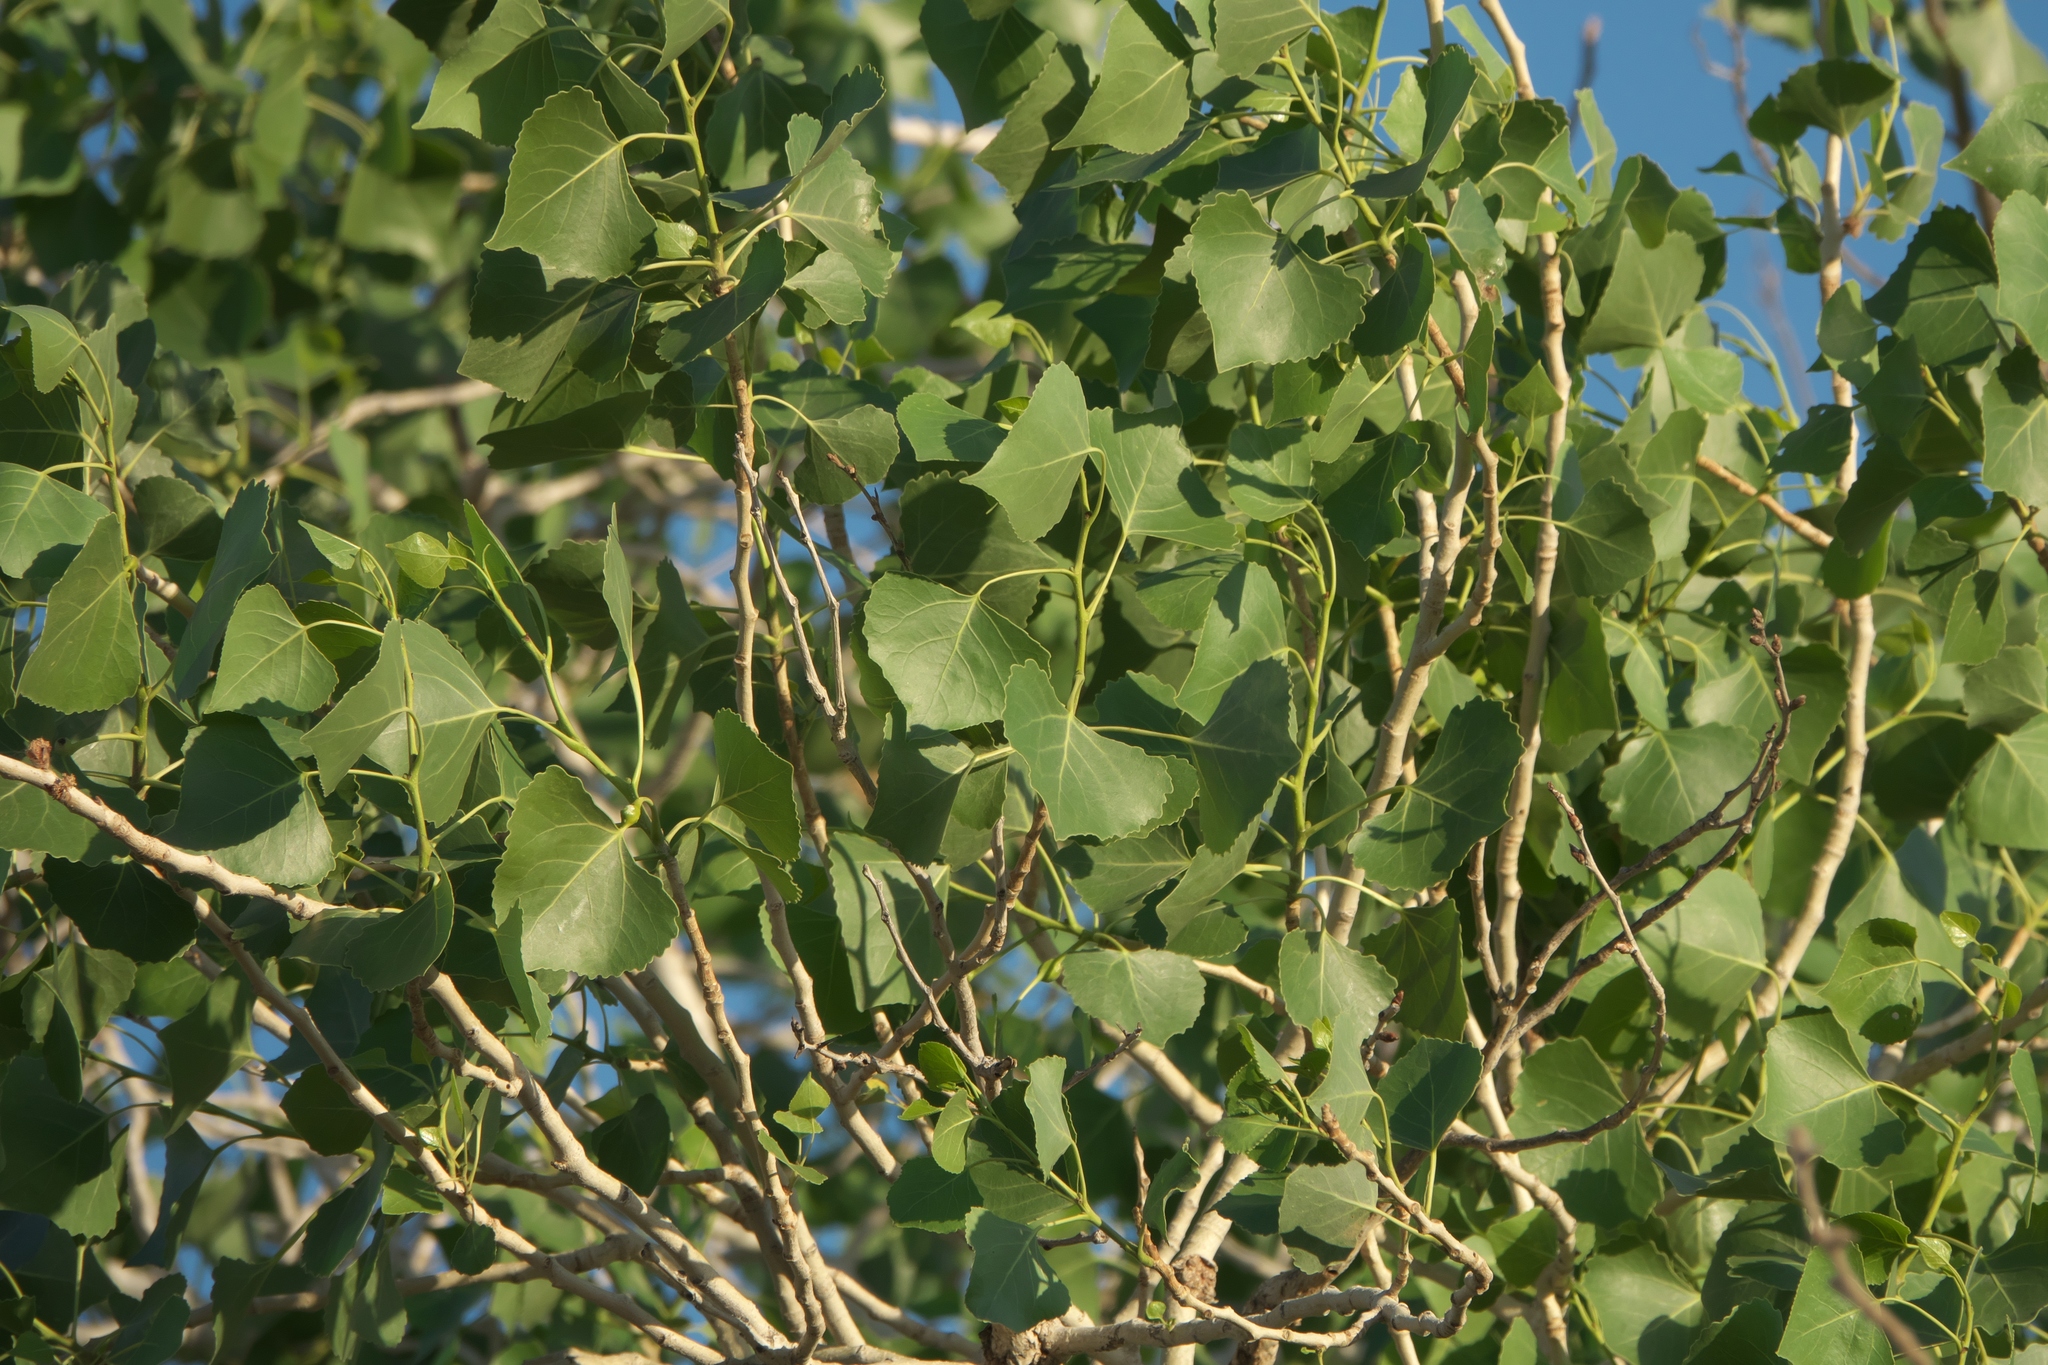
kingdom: Plantae
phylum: Tracheophyta
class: Magnoliopsida
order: Malpighiales
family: Salicaceae
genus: Populus
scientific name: Populus fremontii
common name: Fremont's cottonwood
